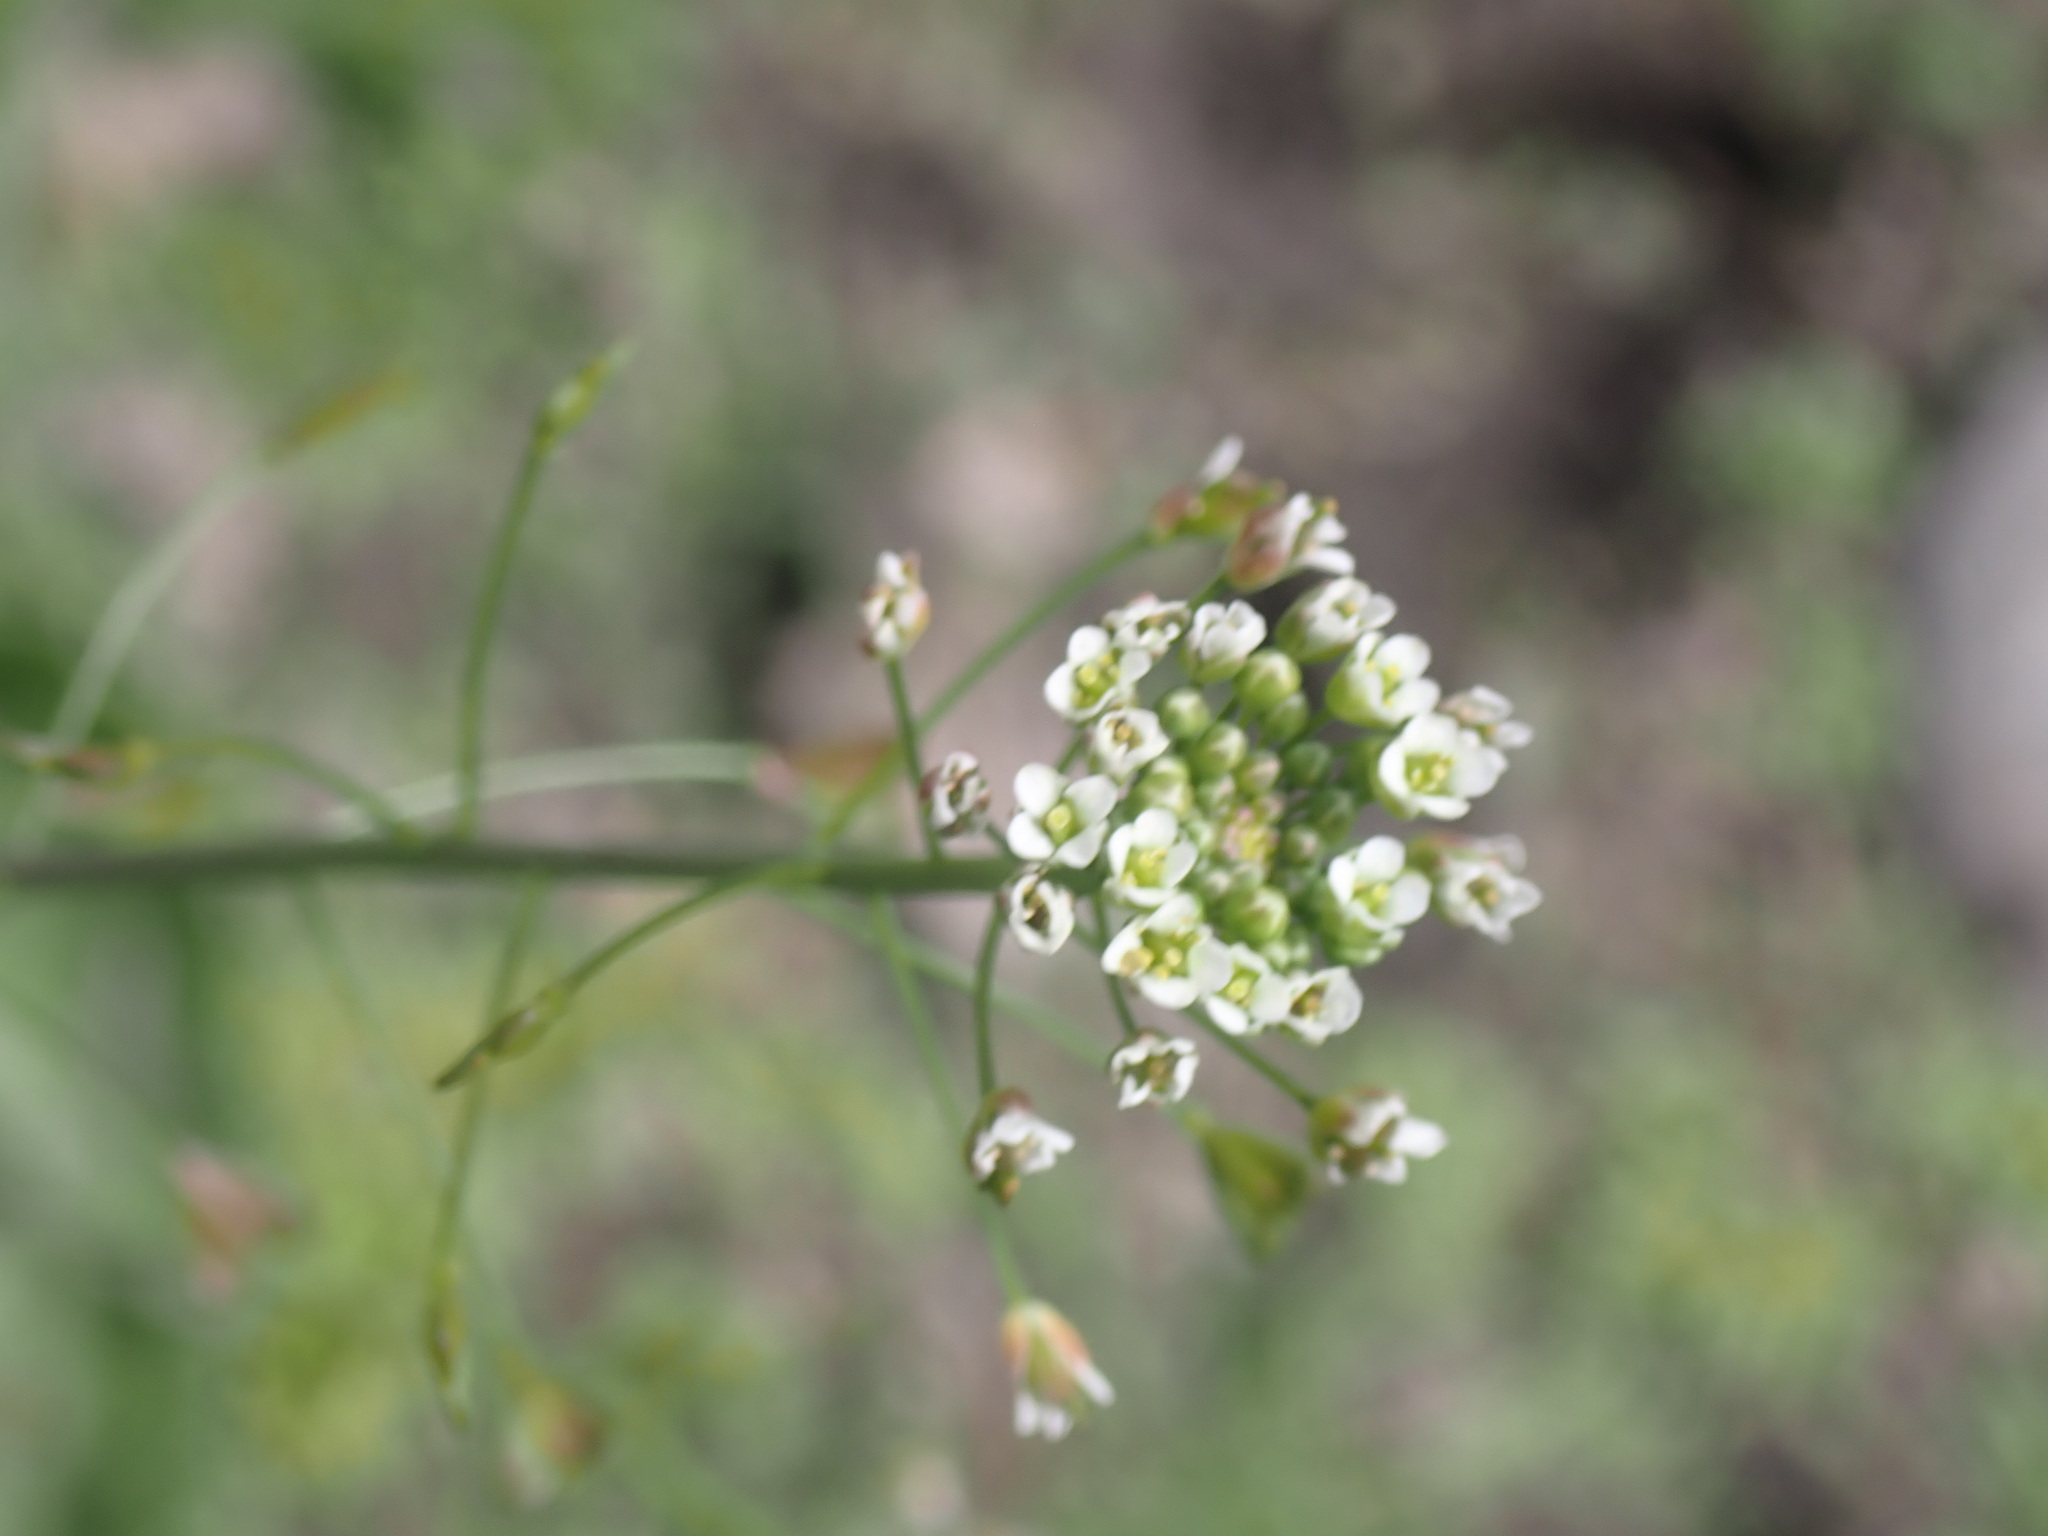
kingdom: Plantae
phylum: Tracheophyta
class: Magnoliopsida
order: Brassicales
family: Brassicaceae
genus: Capsella
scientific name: Capsella bursa-pastoris
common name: Shepherd's purse
